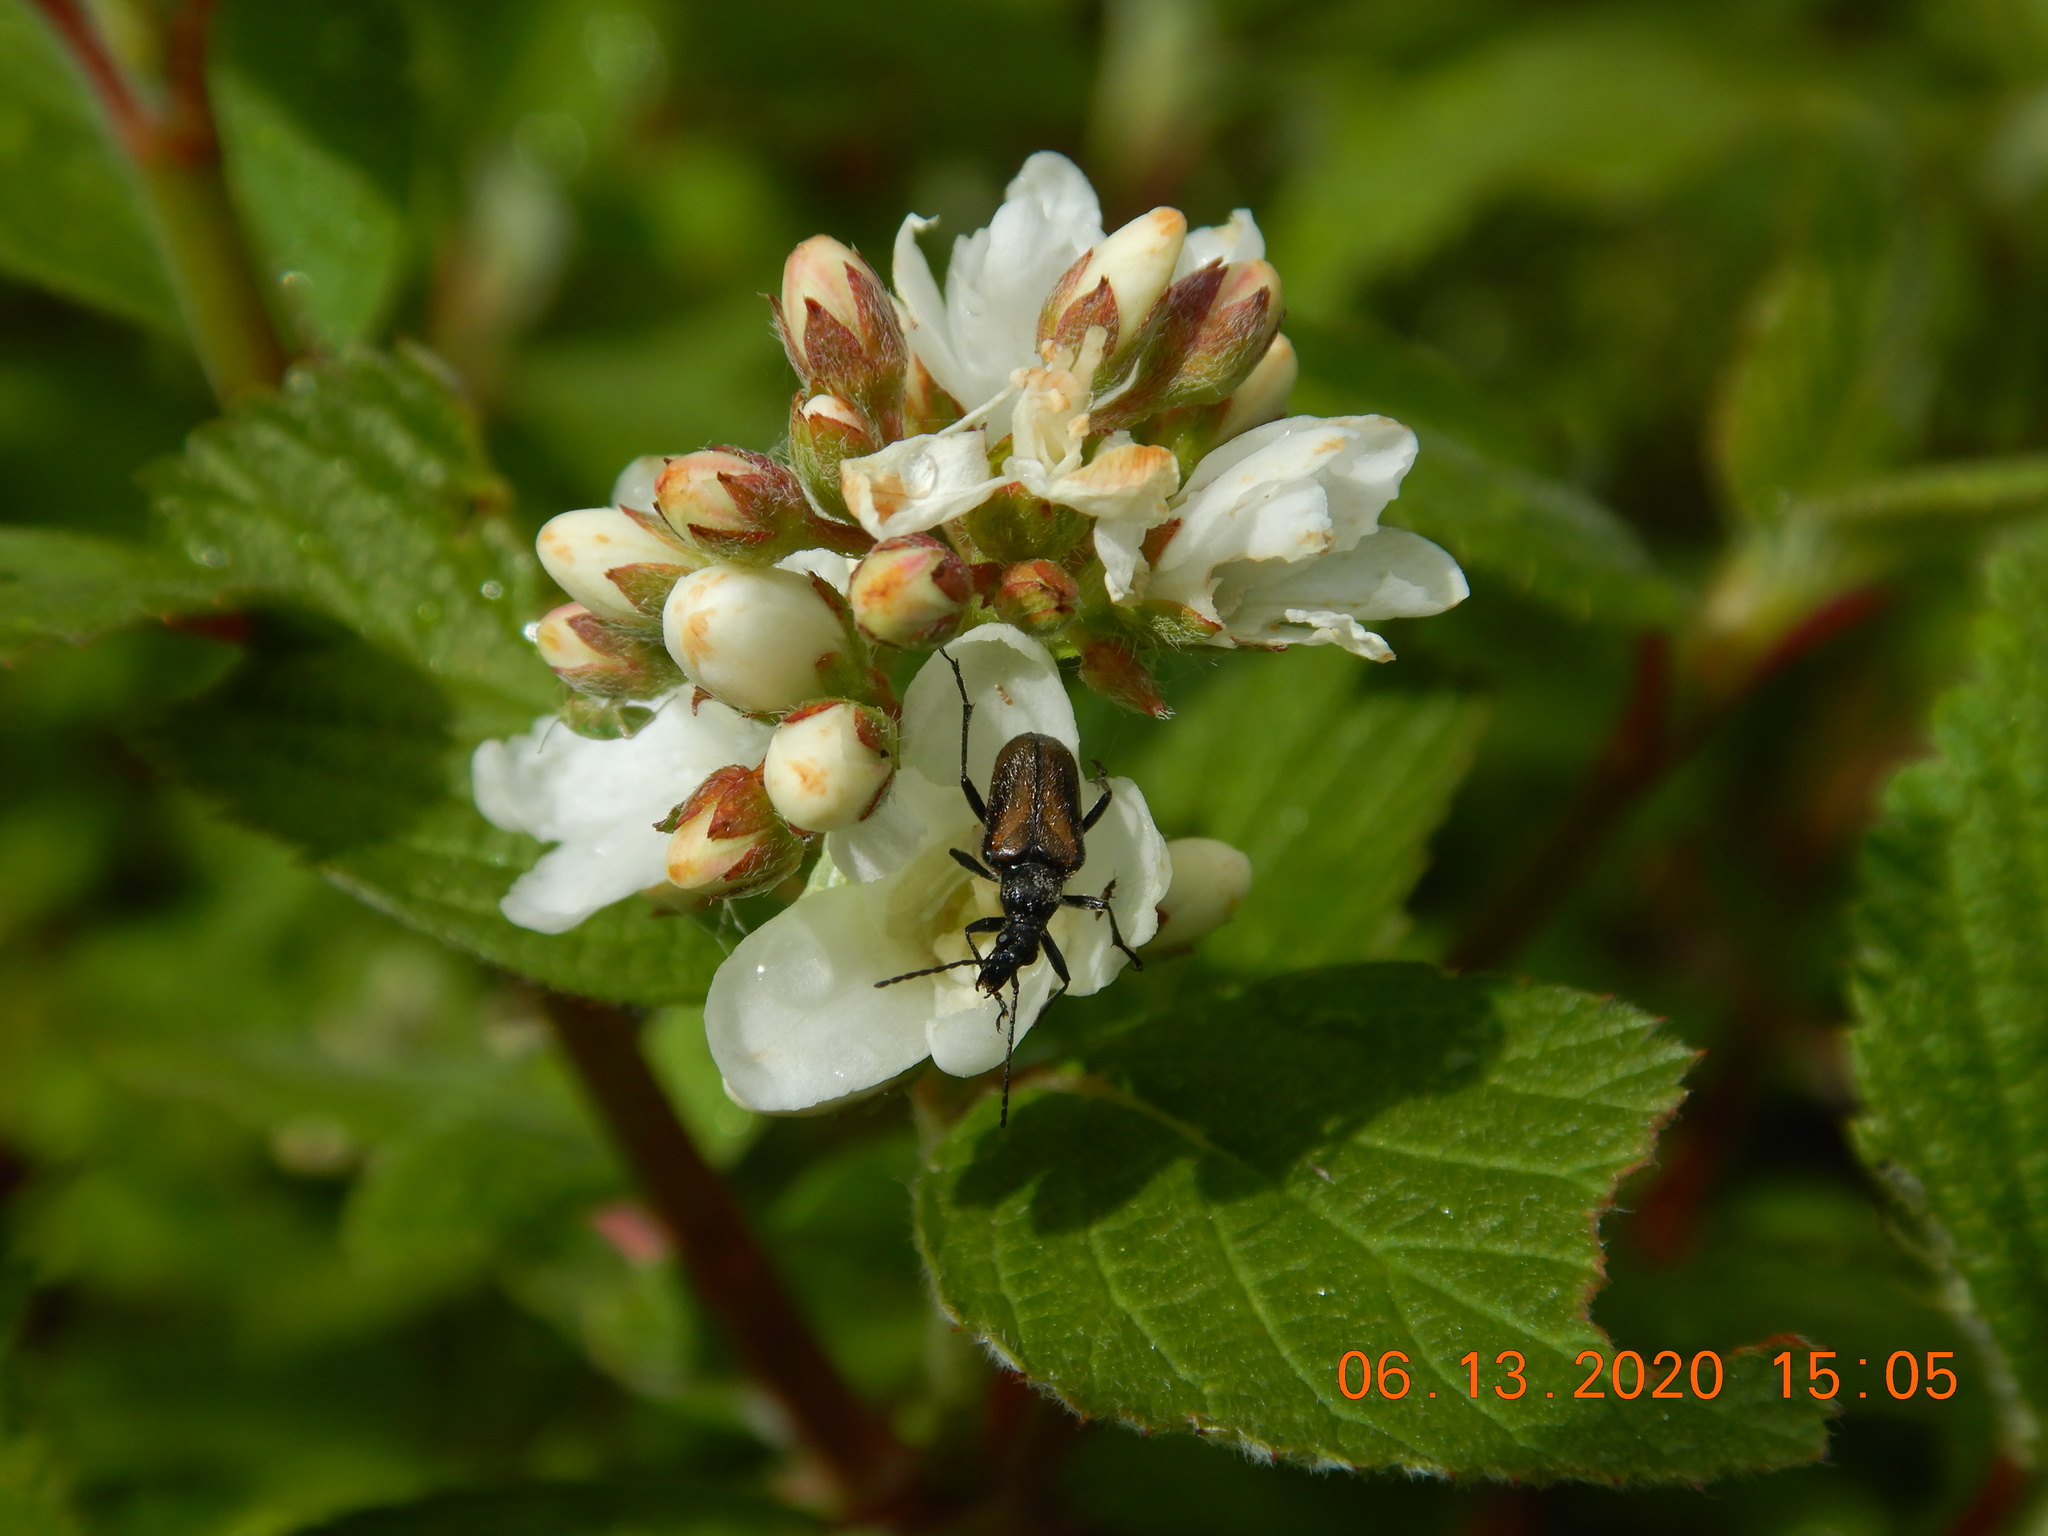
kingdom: Animalia
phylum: Arthropoda
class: Insecta
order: Coleoptera
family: Cerambycidae
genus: Gnathacmaeops
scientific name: Gnathacmaeops pratensis
